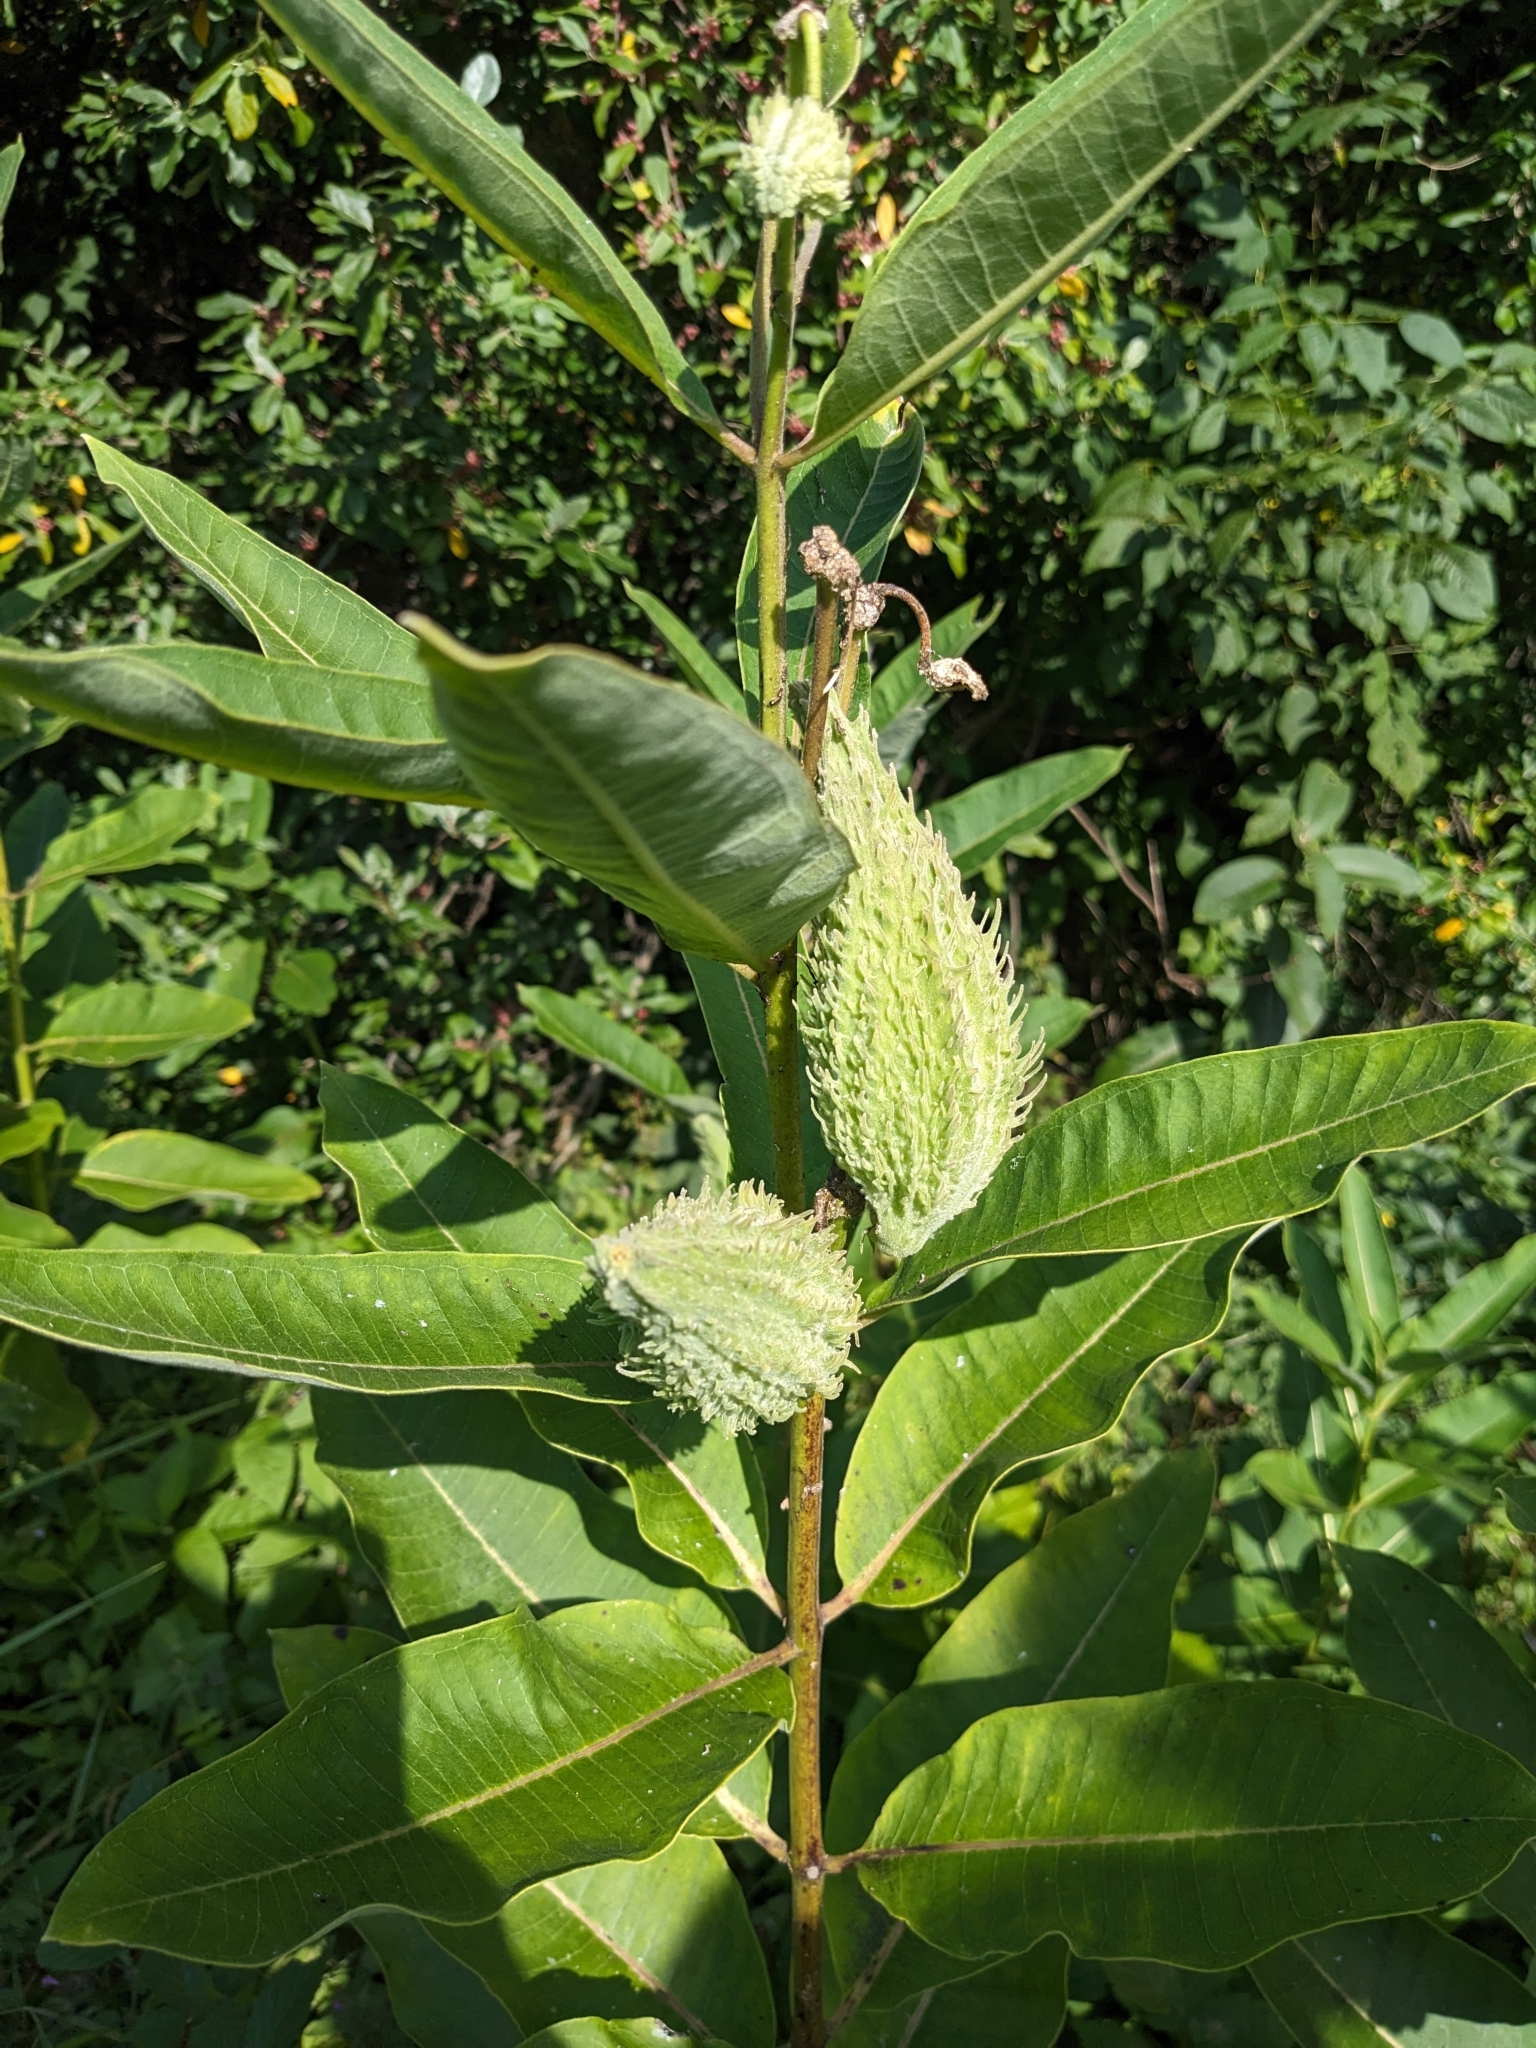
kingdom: Plantae
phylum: Tracheophyta
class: Magnoliopsida
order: Gentianales
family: Apocynaceae
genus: Asclepias
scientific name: Asclepias syriaca
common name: Common milkweed
